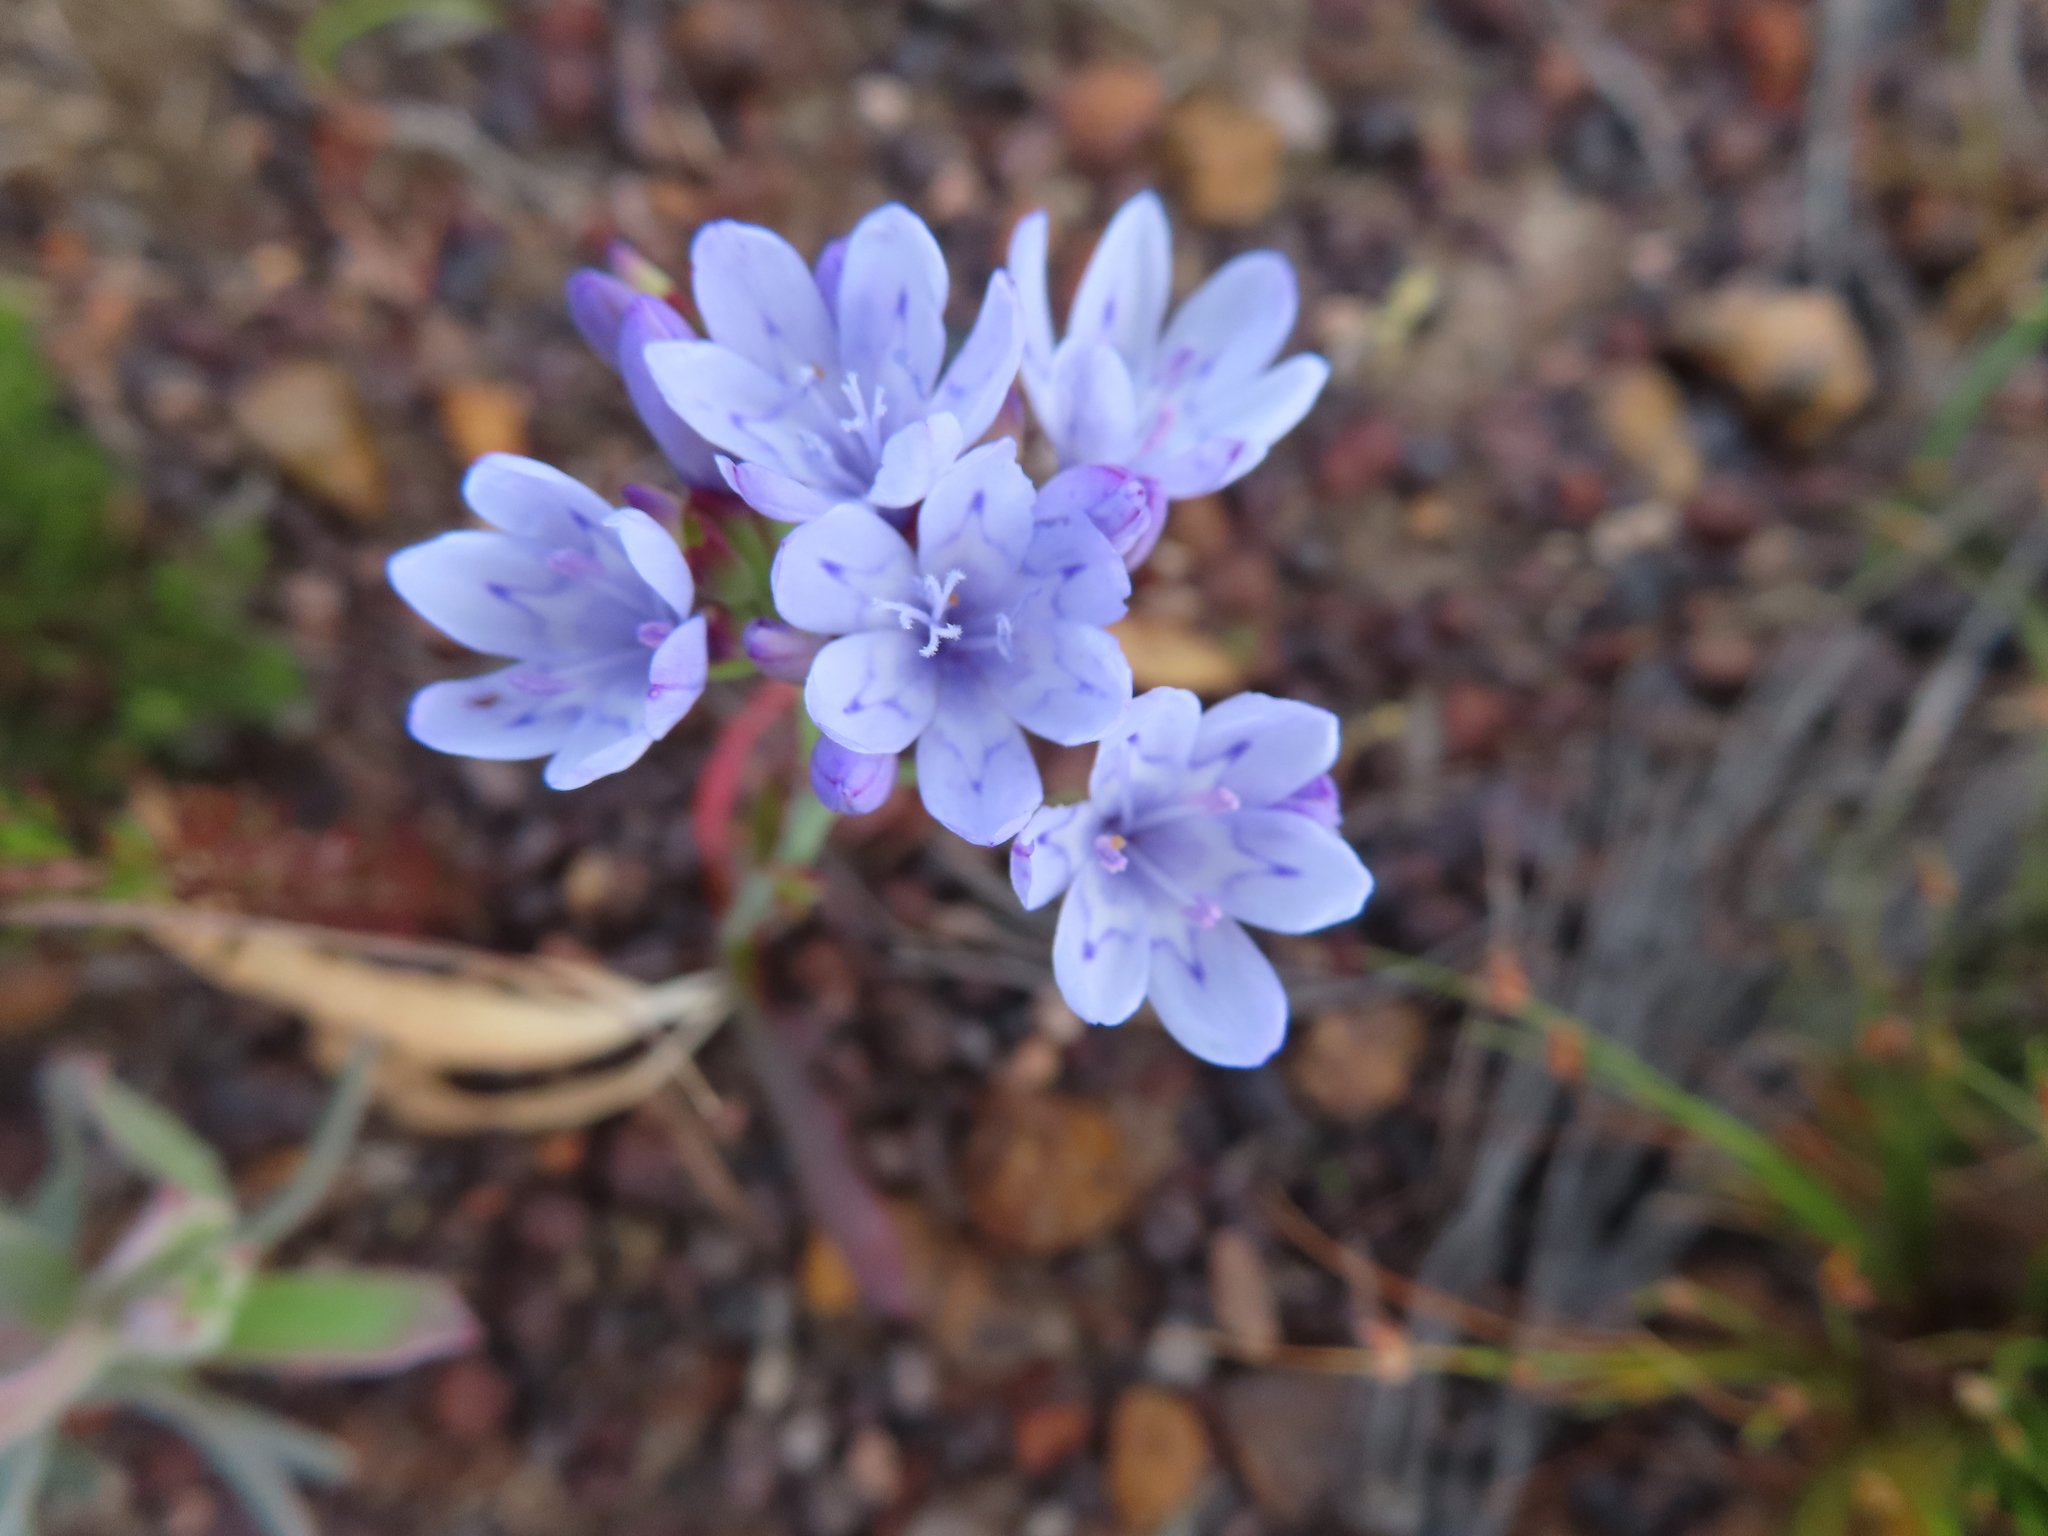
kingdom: Plantae
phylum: Tracheophyta
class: Liliopsida
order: Asparagales
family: Iridaceae
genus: Codonorhiza
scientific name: Codonorhiza corymbosa
